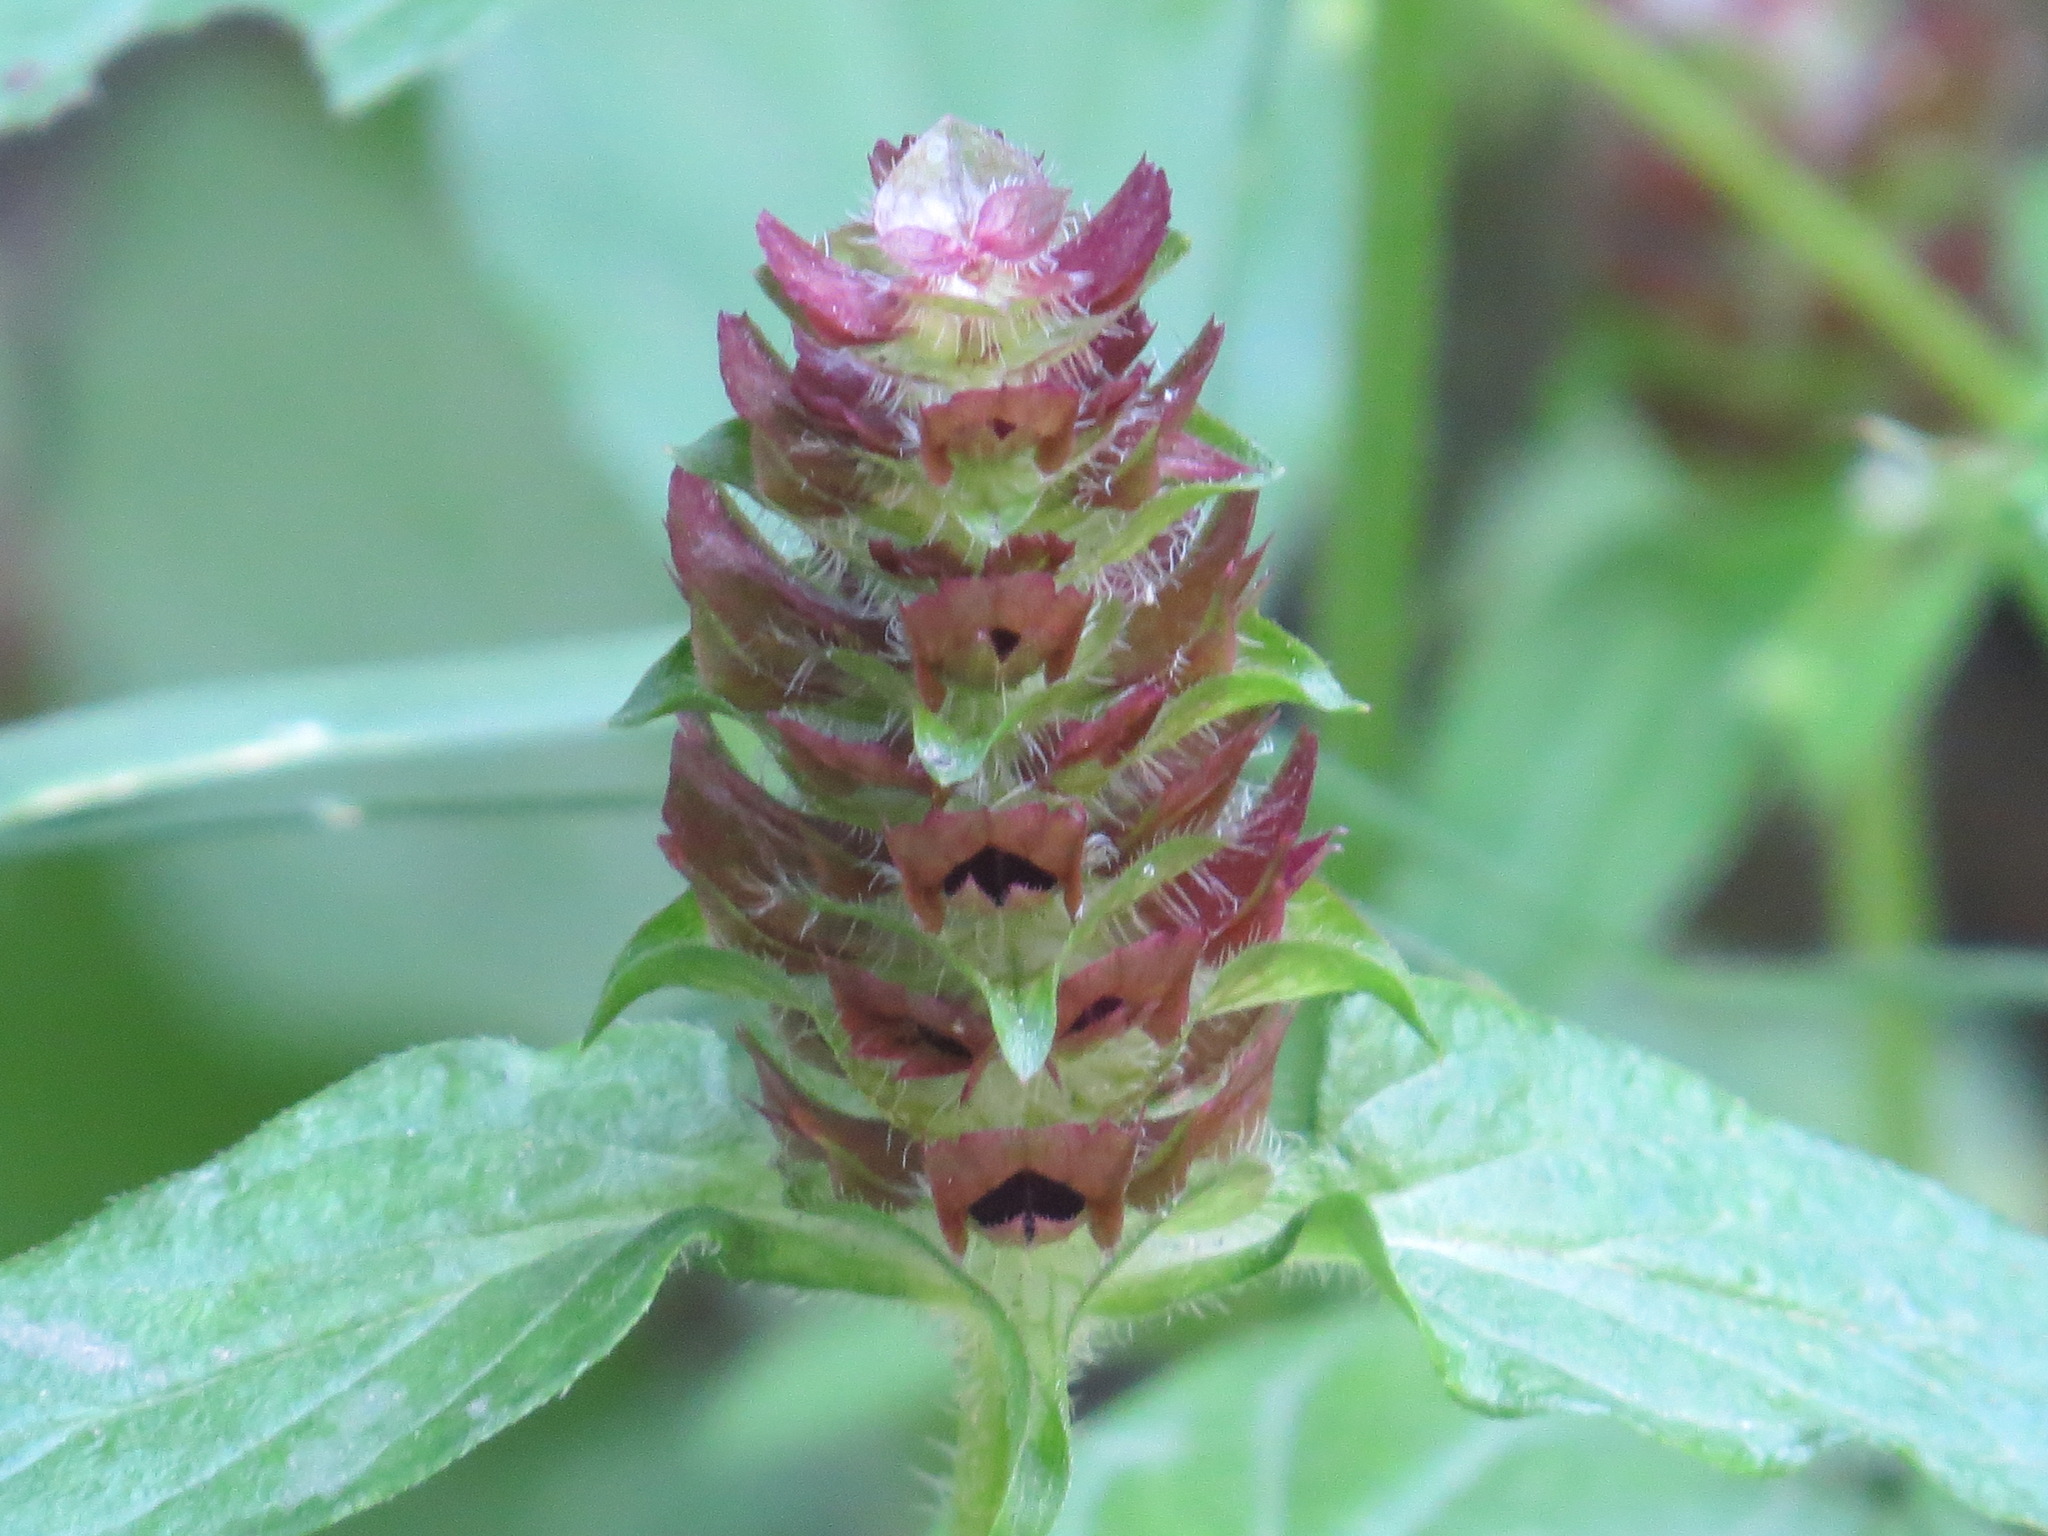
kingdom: Plantae
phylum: Tracheophyta
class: Magnoliopsida
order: Lamiales
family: Lamiaceae
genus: Prunella
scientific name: Prunella vulgaris
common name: Heal-all
